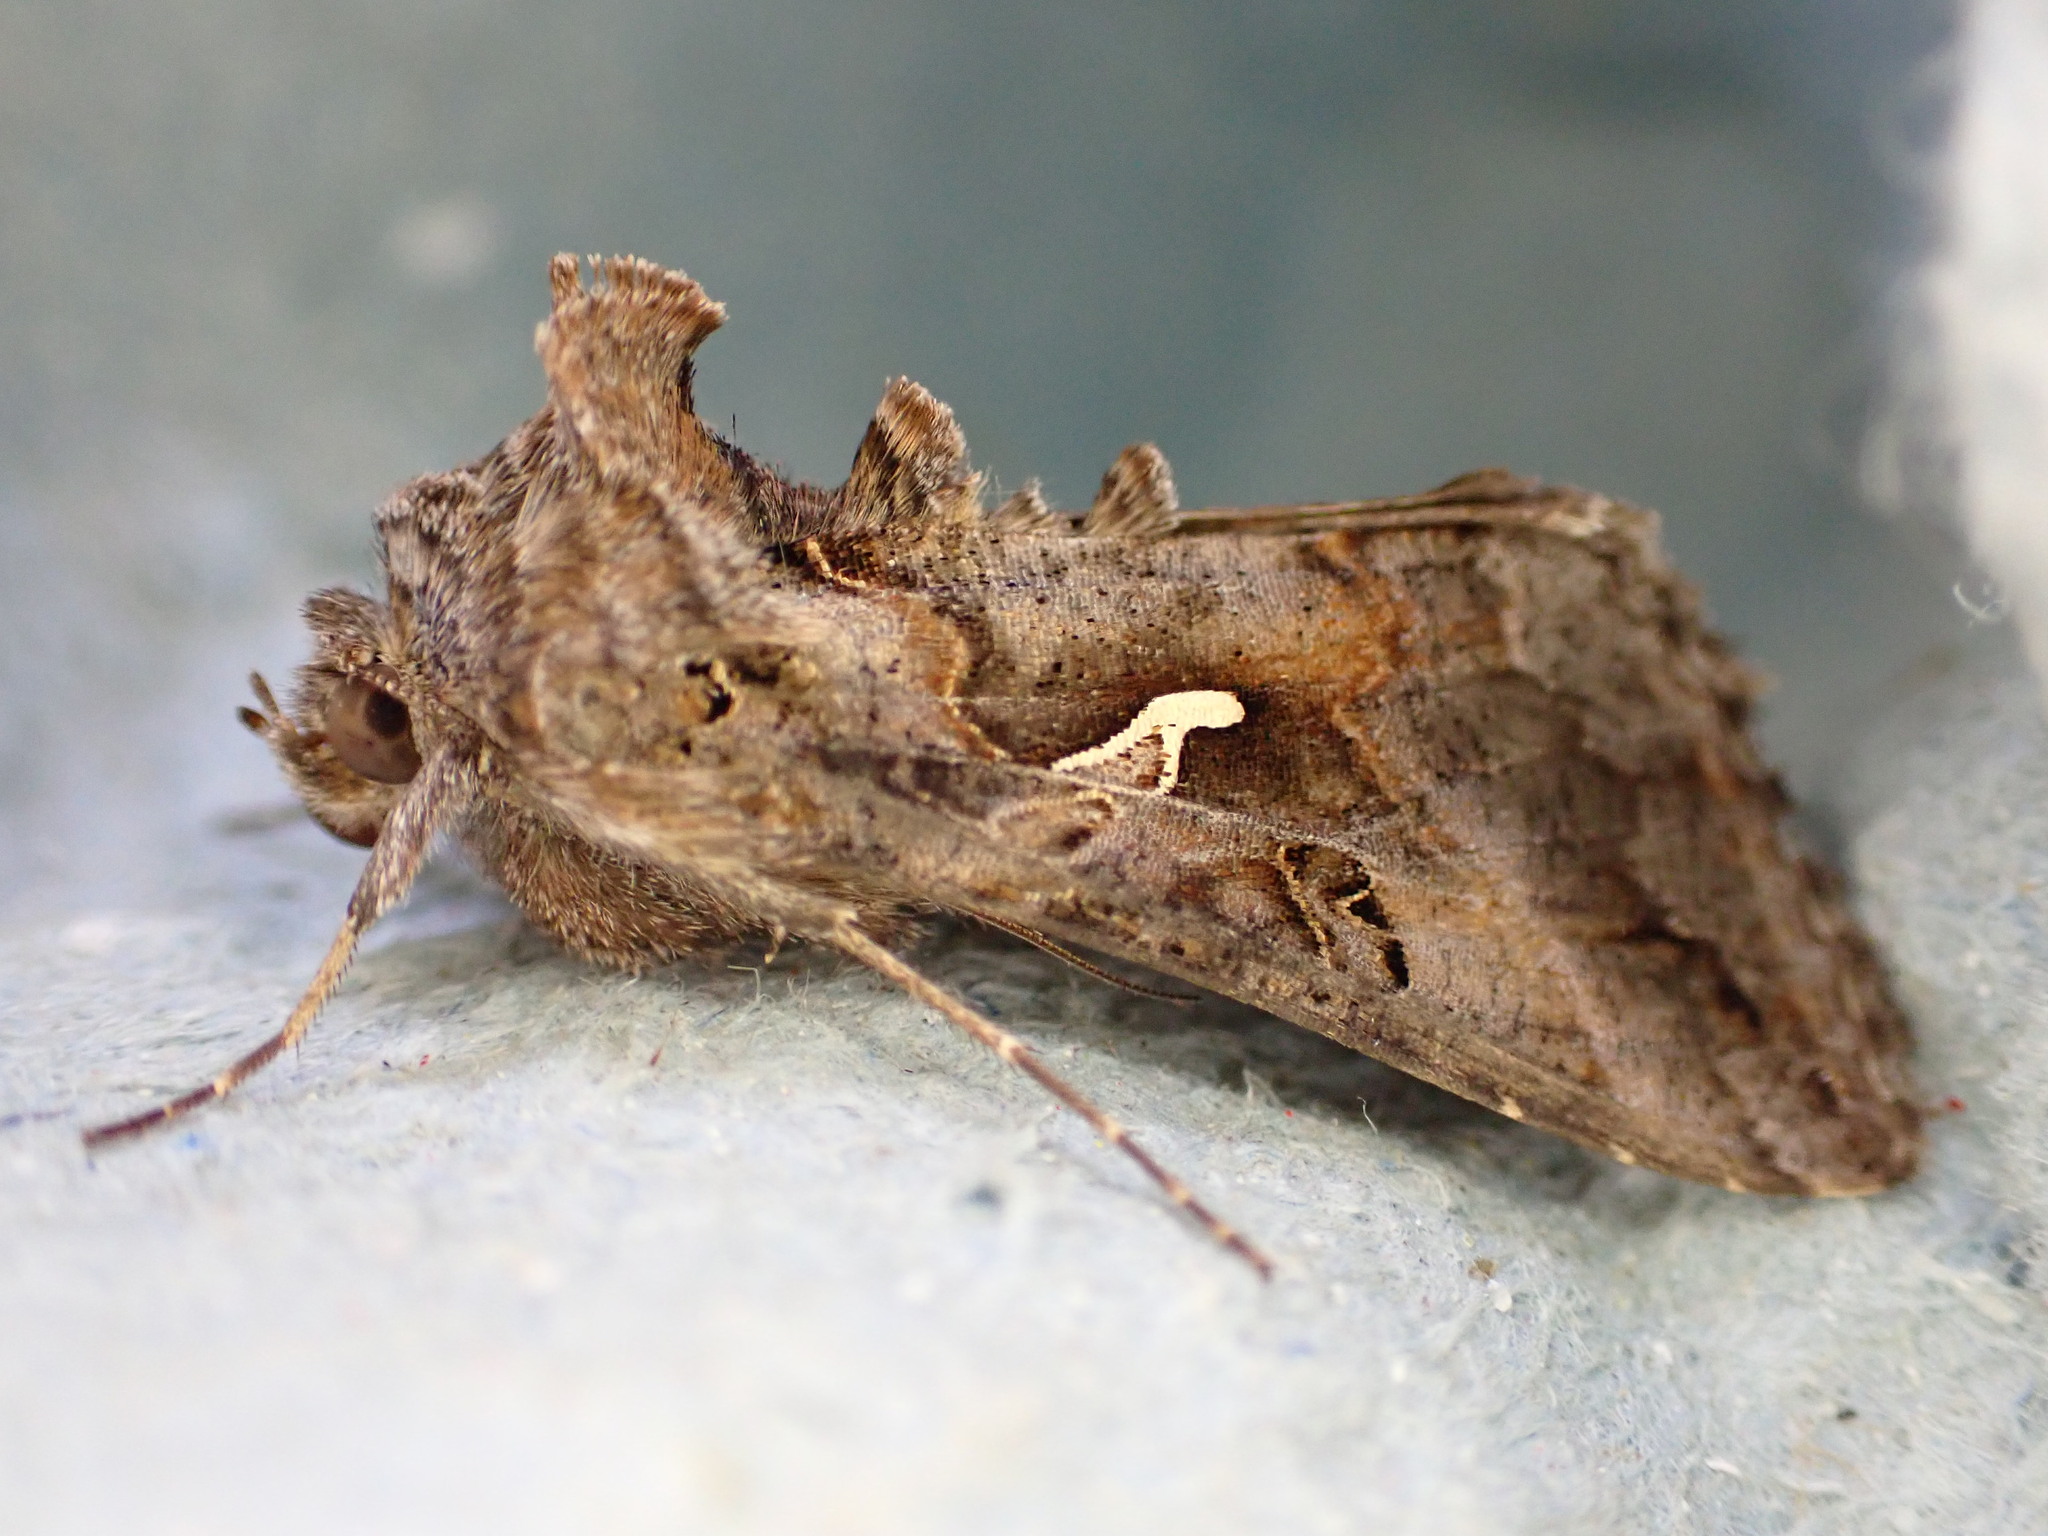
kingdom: Animalia
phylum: Arthropoda
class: Insecta
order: Lepidoptera
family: Noctuidae
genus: Autographa
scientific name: Autographa gamma
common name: Silver y
